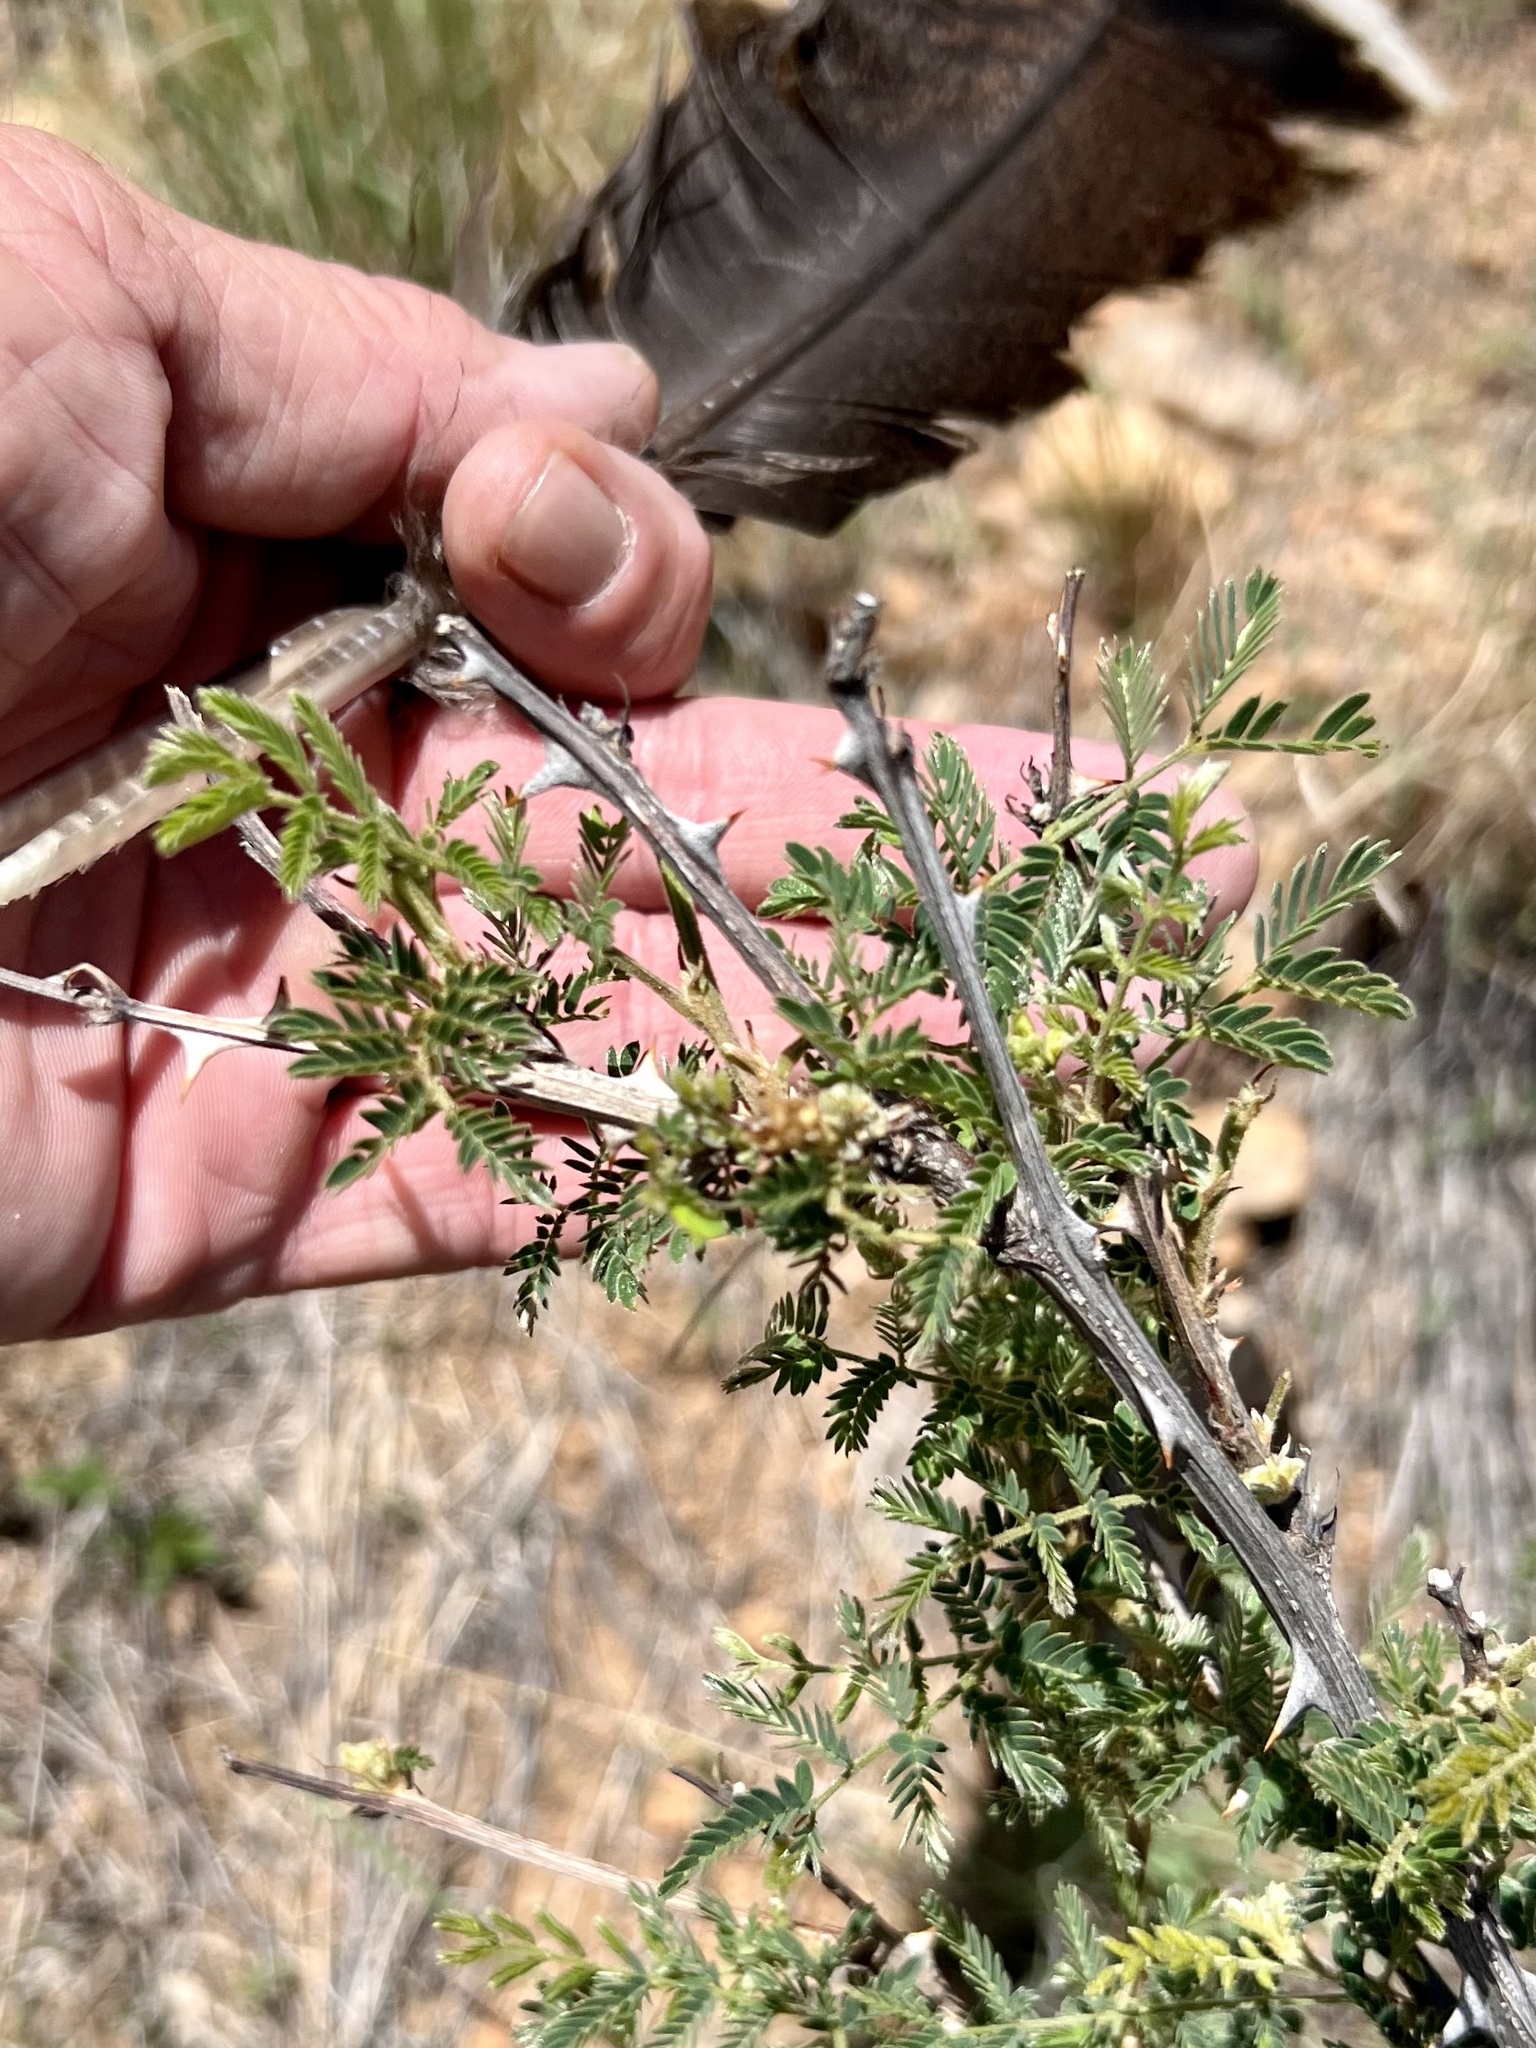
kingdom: Plantae
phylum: Tracheophyta
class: Magnoliopsida
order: Fabales
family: Fabaceae
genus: Mimosa
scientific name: Mimosa aculeaticarpa
